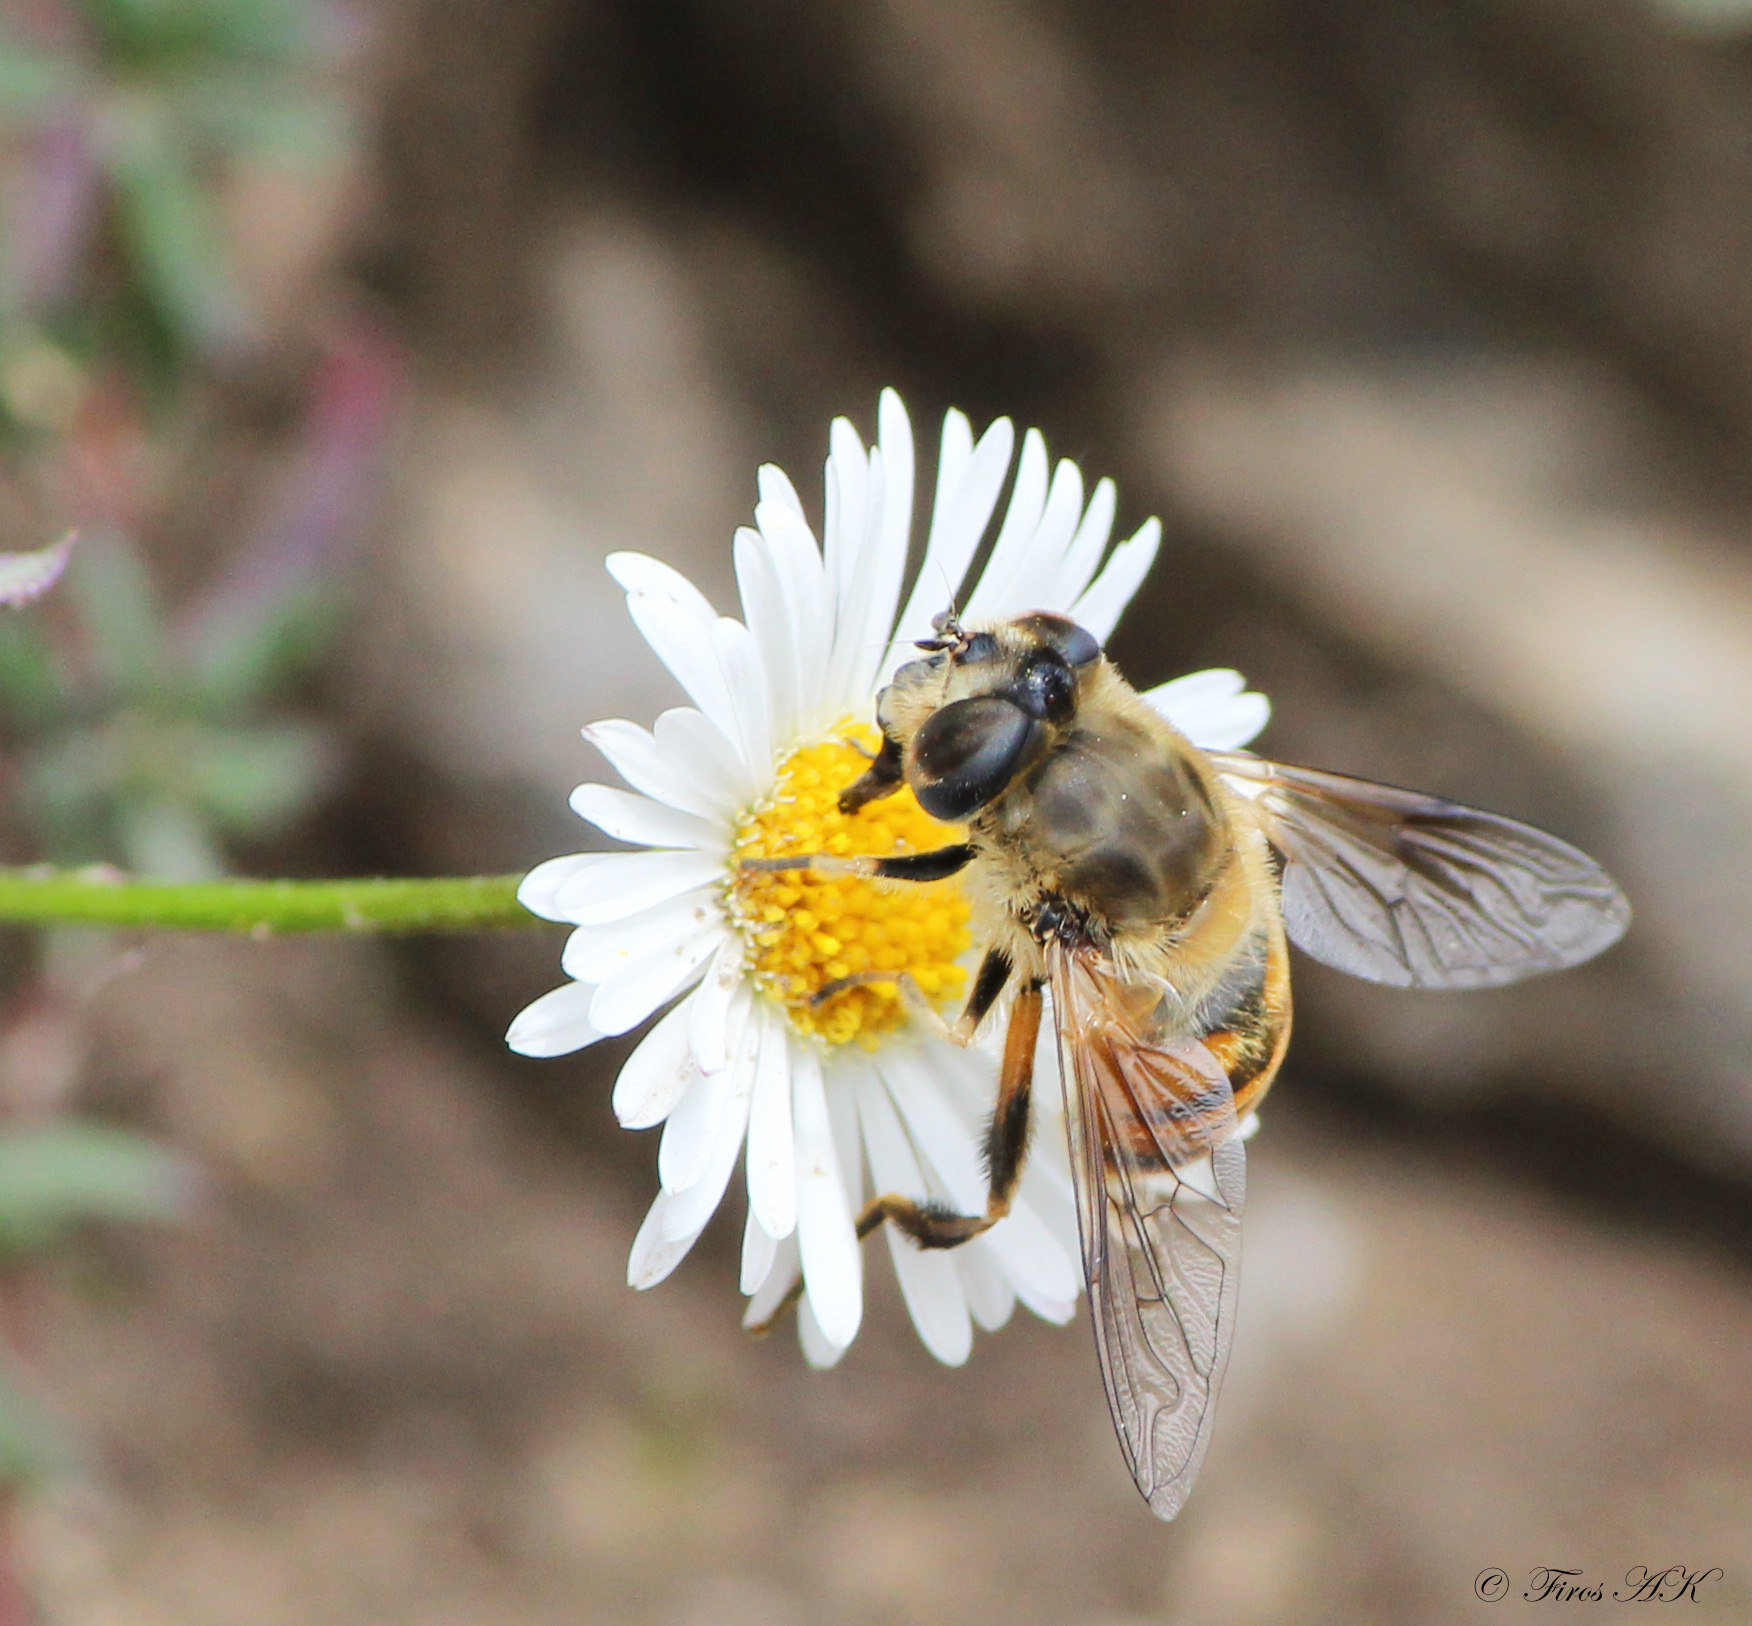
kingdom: Animalia
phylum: Arthropoda
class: Insecta
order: Diptera
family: Syrphidae
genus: Eristalis
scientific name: Eristalis tenax
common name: Drone fly
